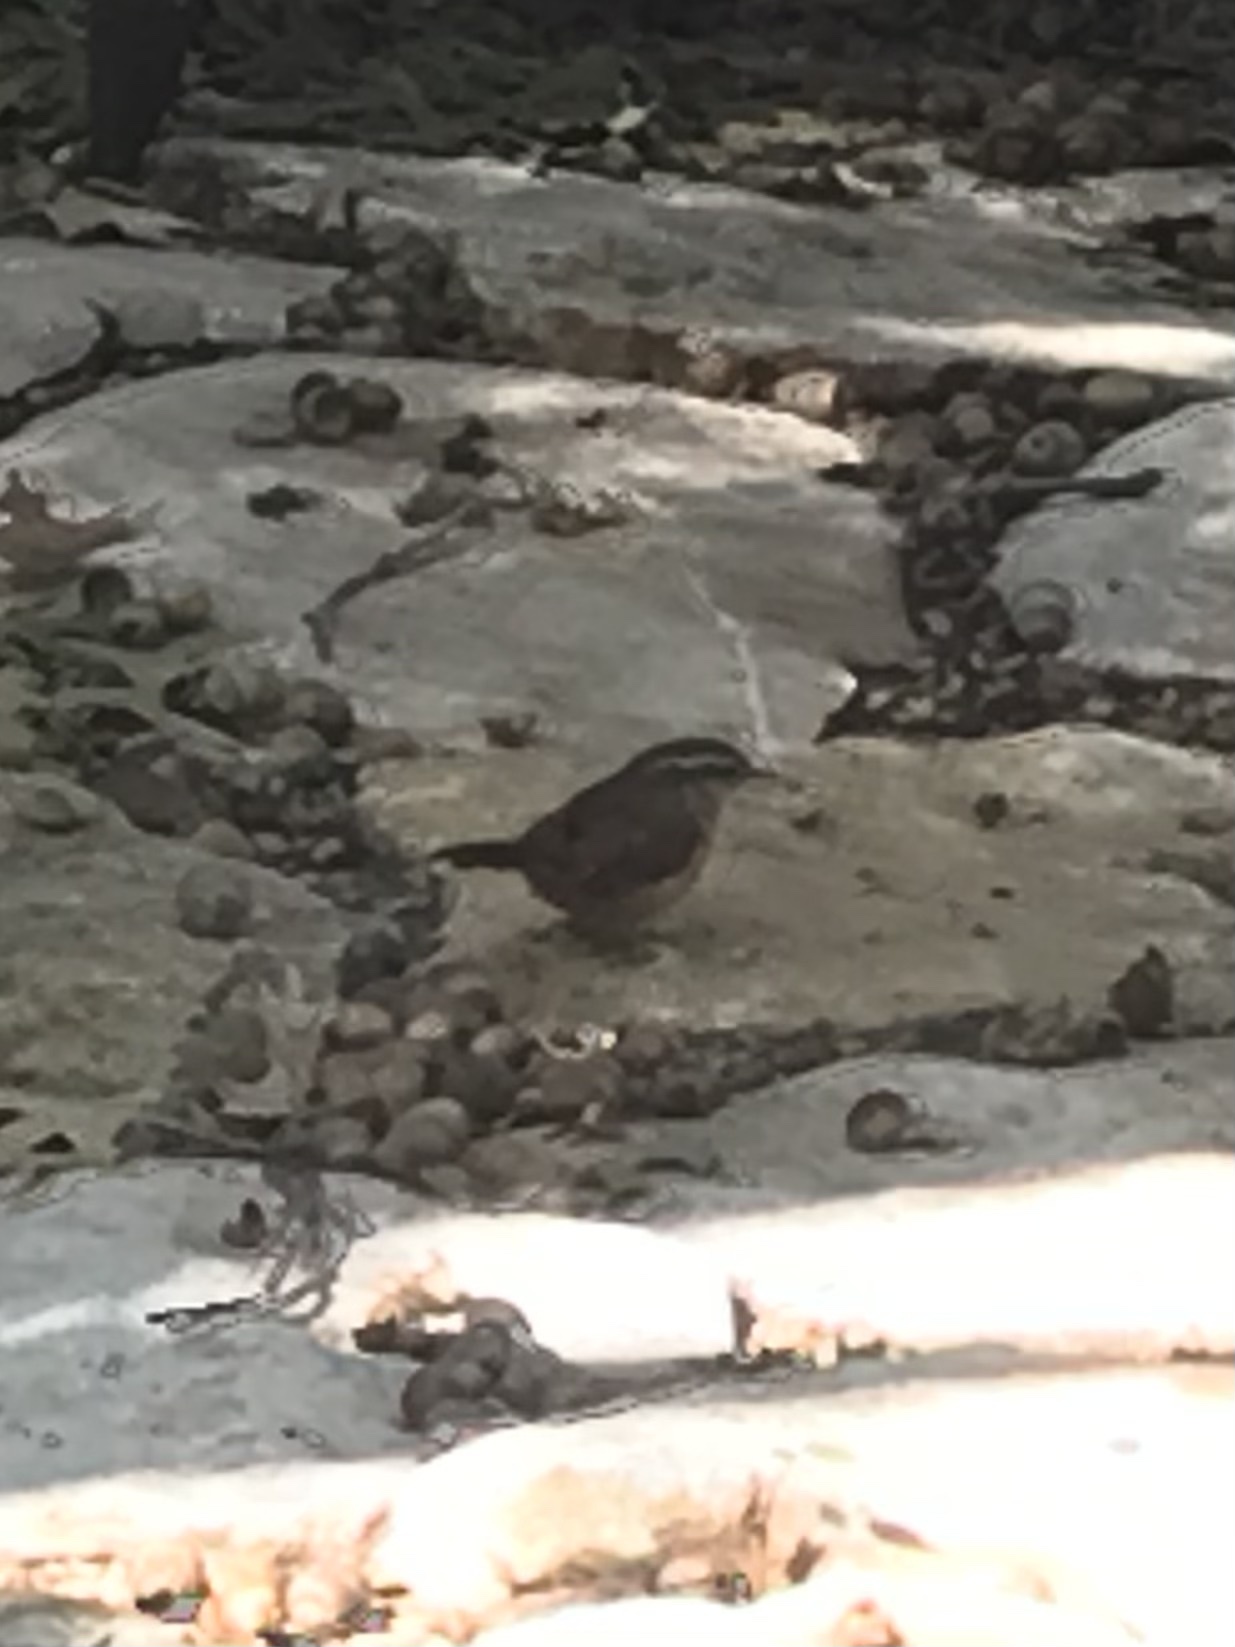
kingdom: Animalia
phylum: Chordata
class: Aves
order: Passeriformes
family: Troglodytidae
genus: Thryothorus
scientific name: Thryothorus ludovicianus
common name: Carolina wren
